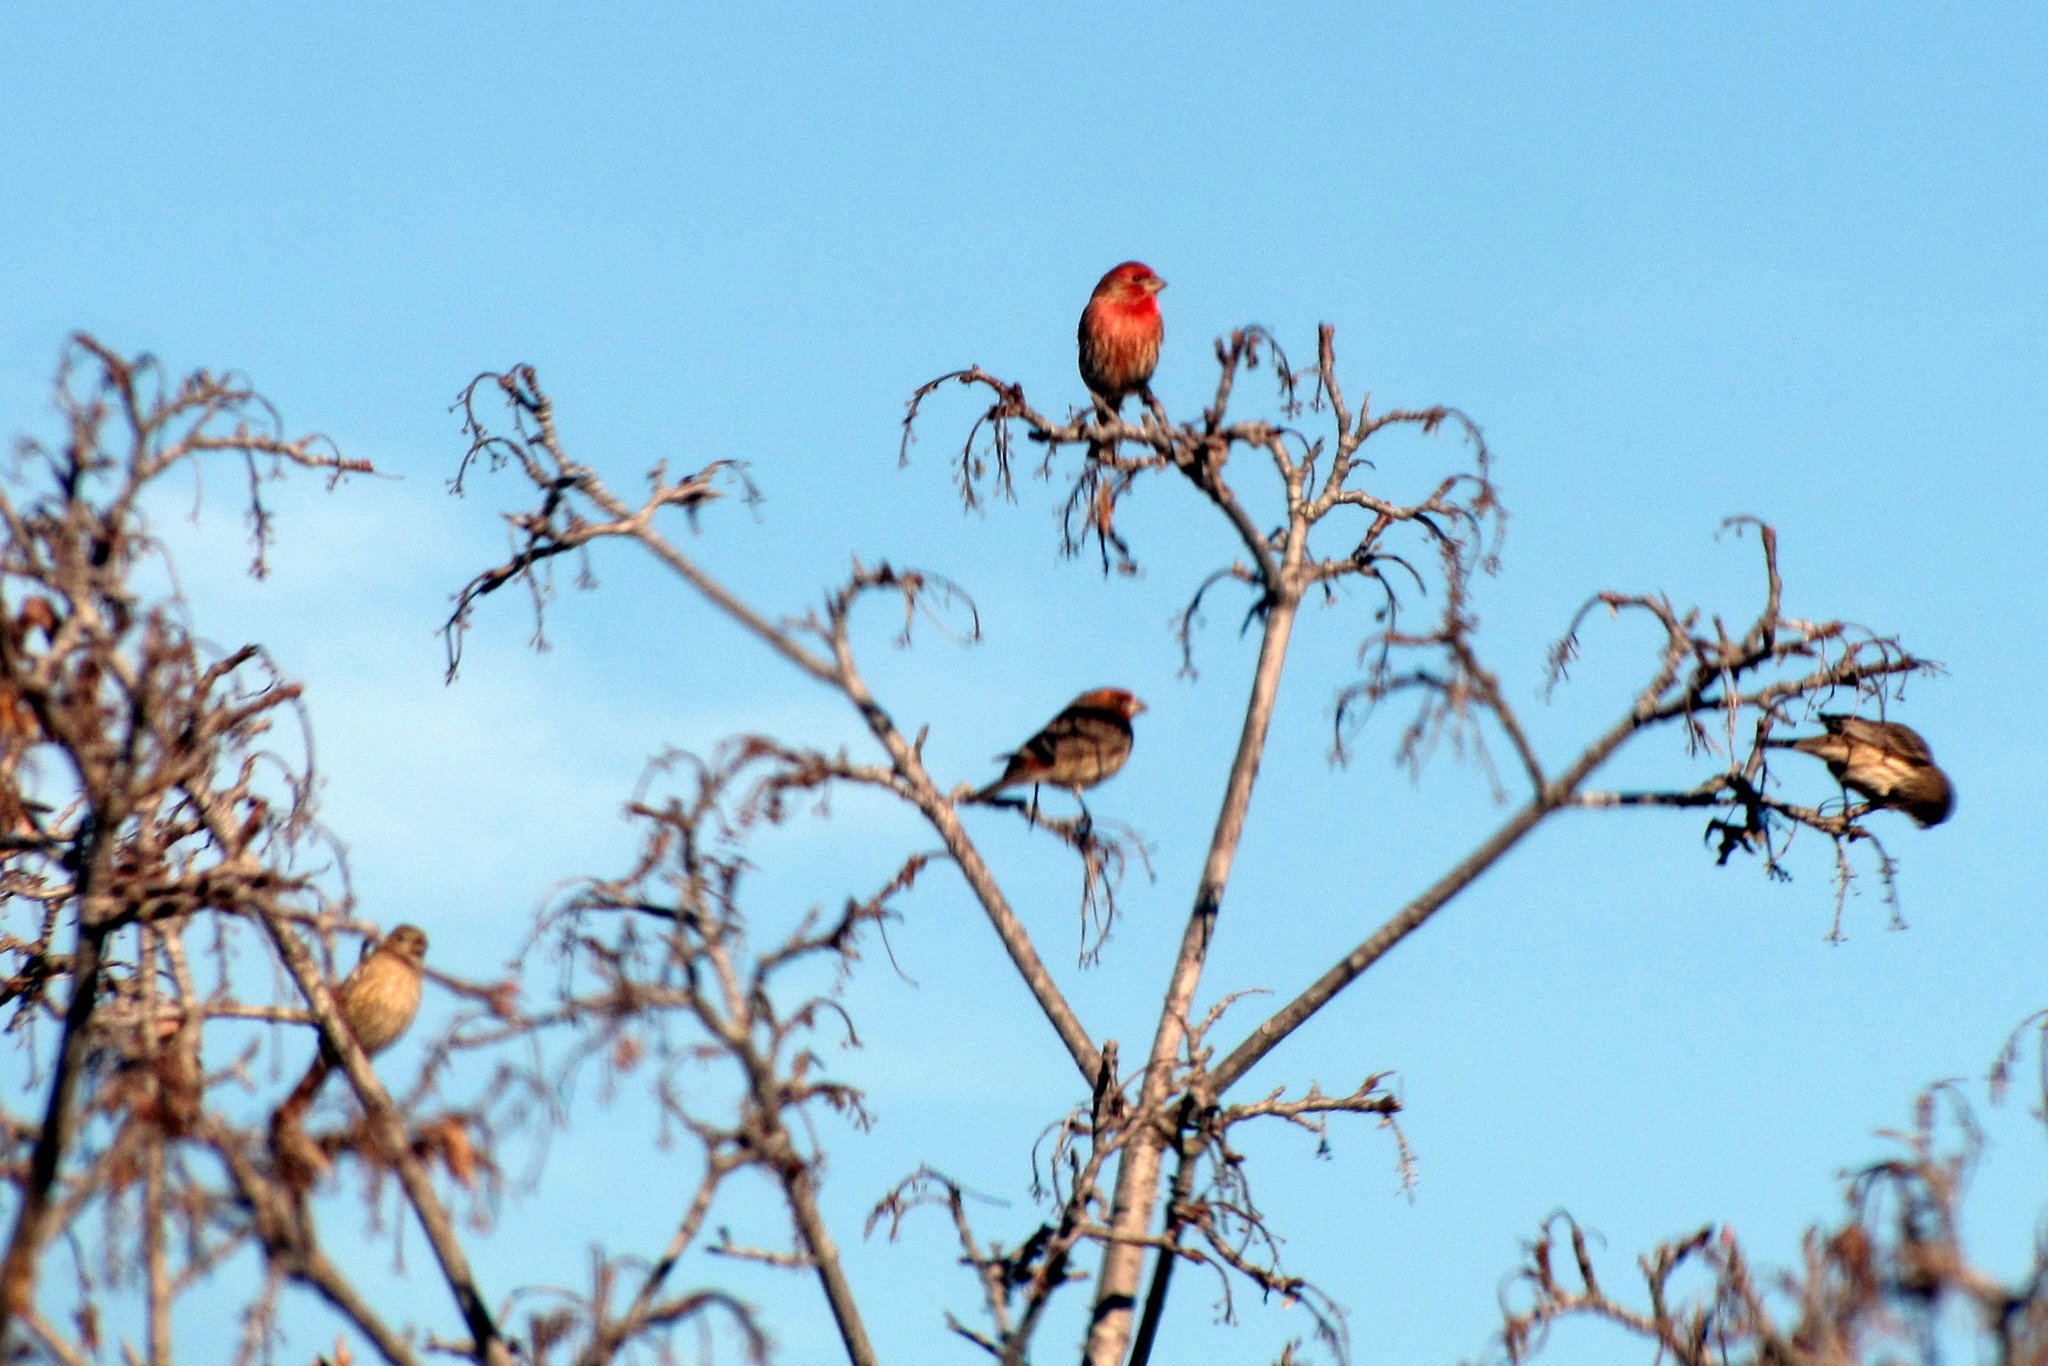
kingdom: Animalia
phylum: Chordata
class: Aves
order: Passeriformes
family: Fringillidae
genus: Haemorhous
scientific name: Haemorhous mexicanus
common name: House finch
